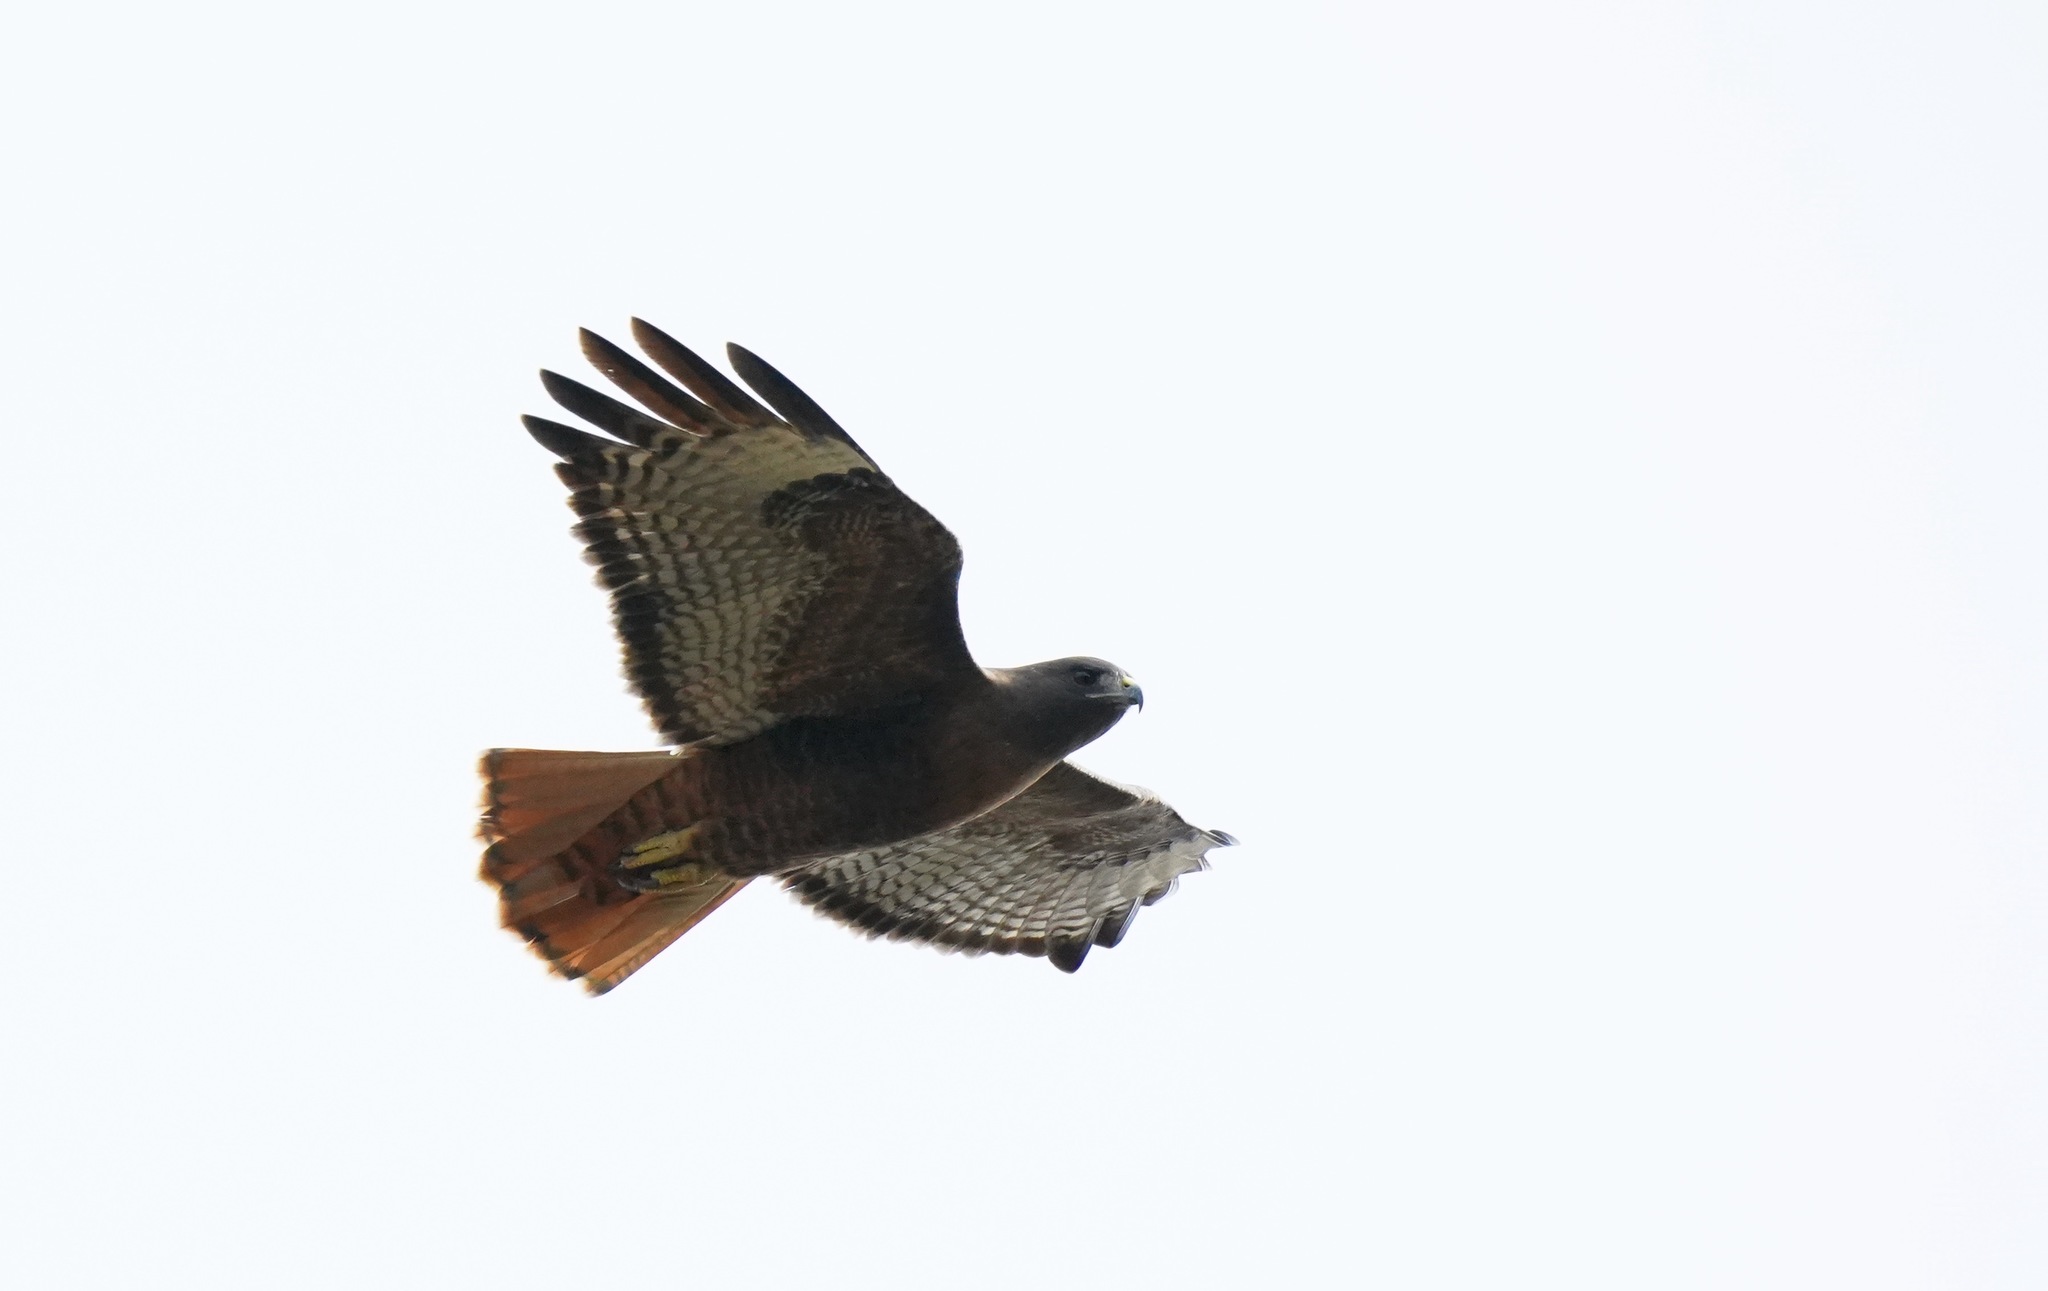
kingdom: Animalia
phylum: Chordata
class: Aves
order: Accipitriformes
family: Accipitridae
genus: Buteo
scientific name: Buteo jamaicensis
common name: Red-tailed hawk
